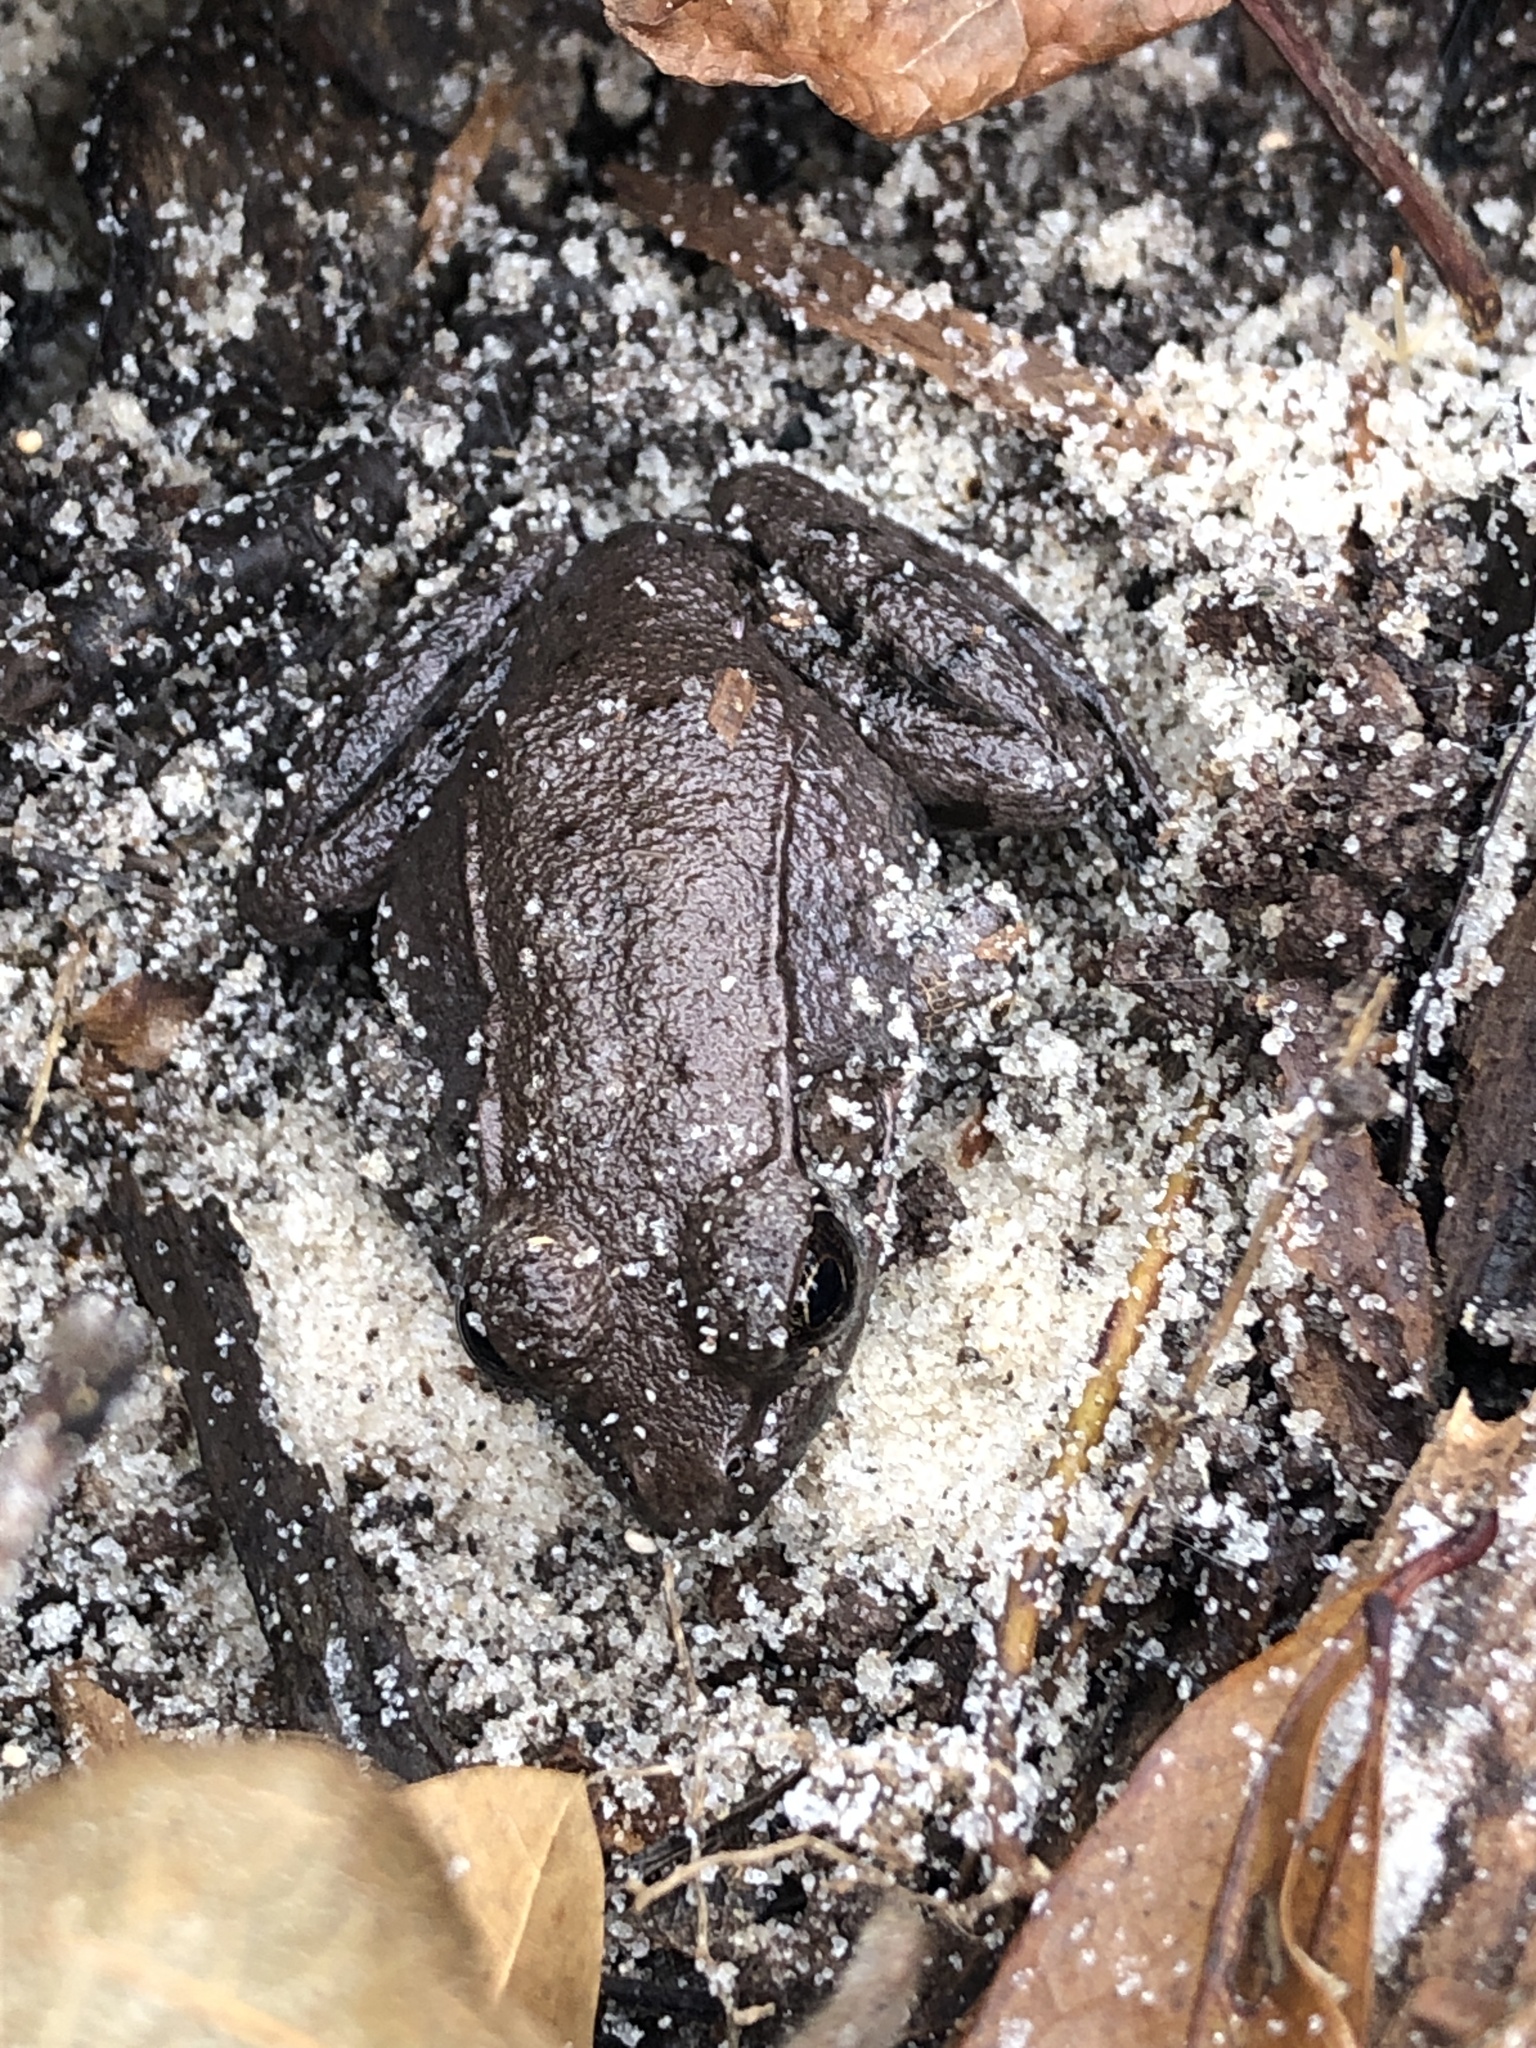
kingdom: Animalia
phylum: Chordata
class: Amphibia
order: Anura
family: Ranidae
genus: Lithobates
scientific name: Lithobates clamitans
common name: Green frog
